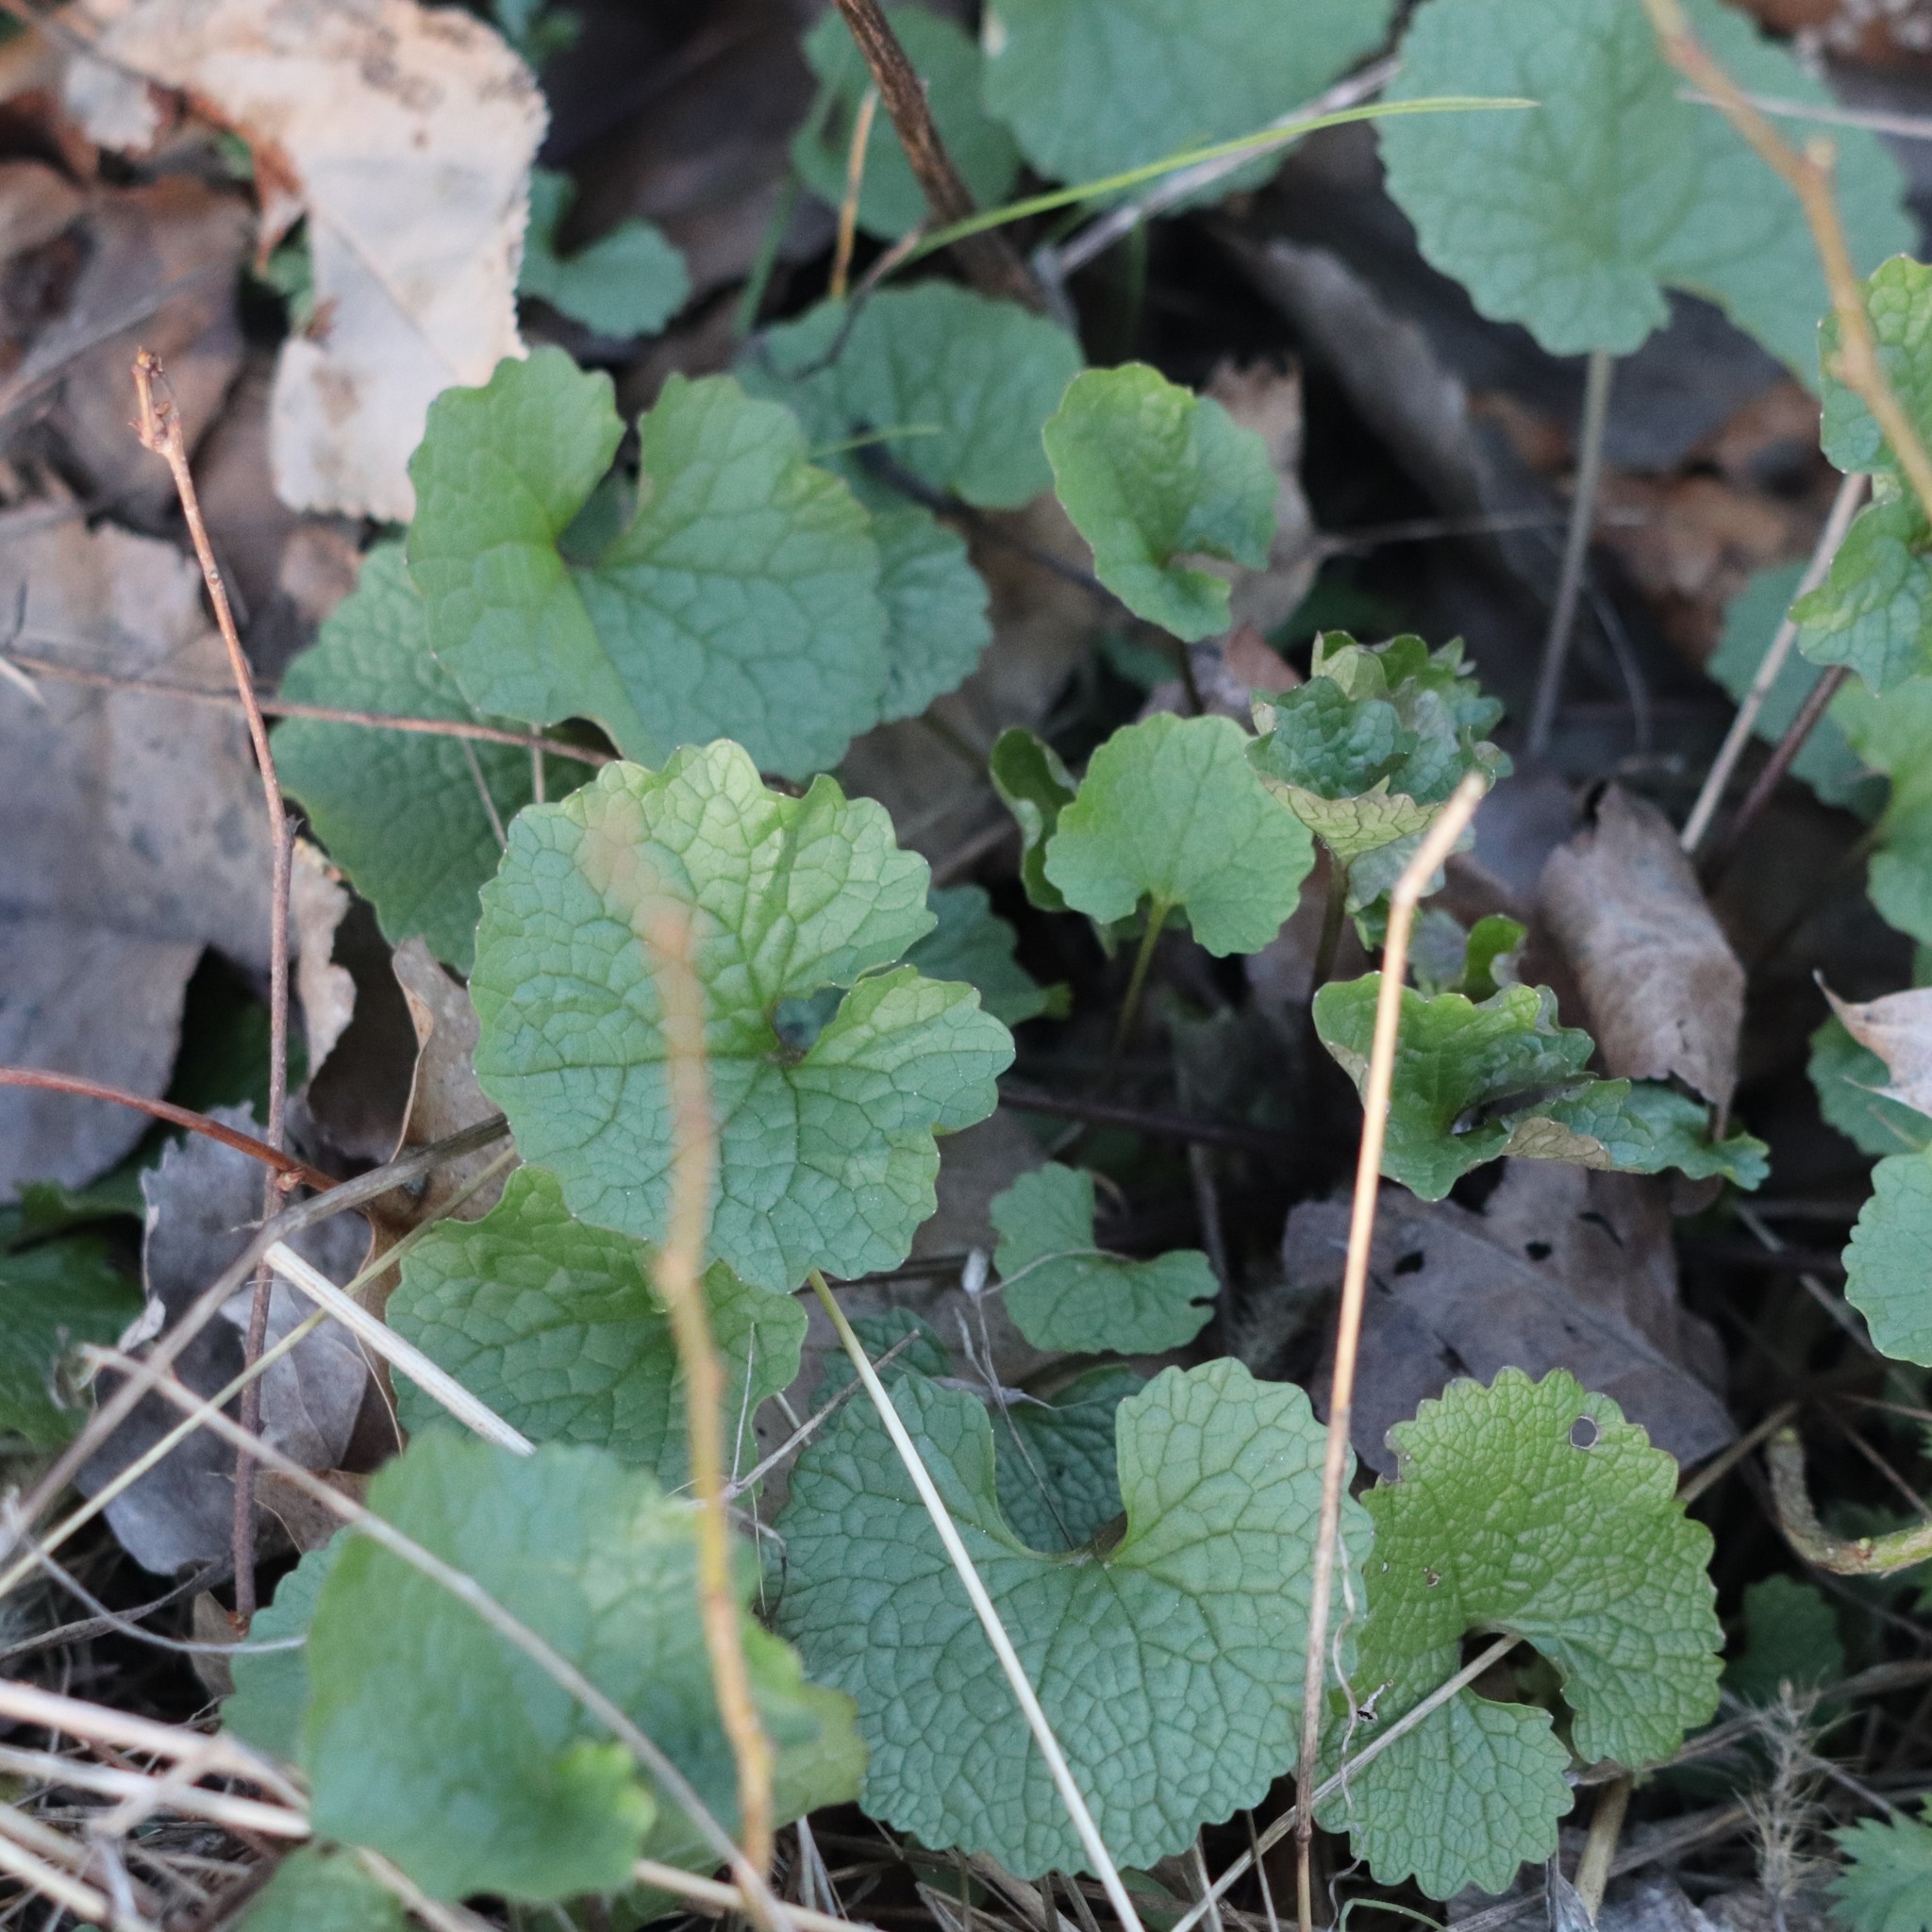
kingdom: Plantae
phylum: Tracheophyta
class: Magnoliopsida
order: Brassicales
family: Brassicaceae
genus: Alliaria
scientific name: Alliaria petiolata
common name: Garlic mustard
